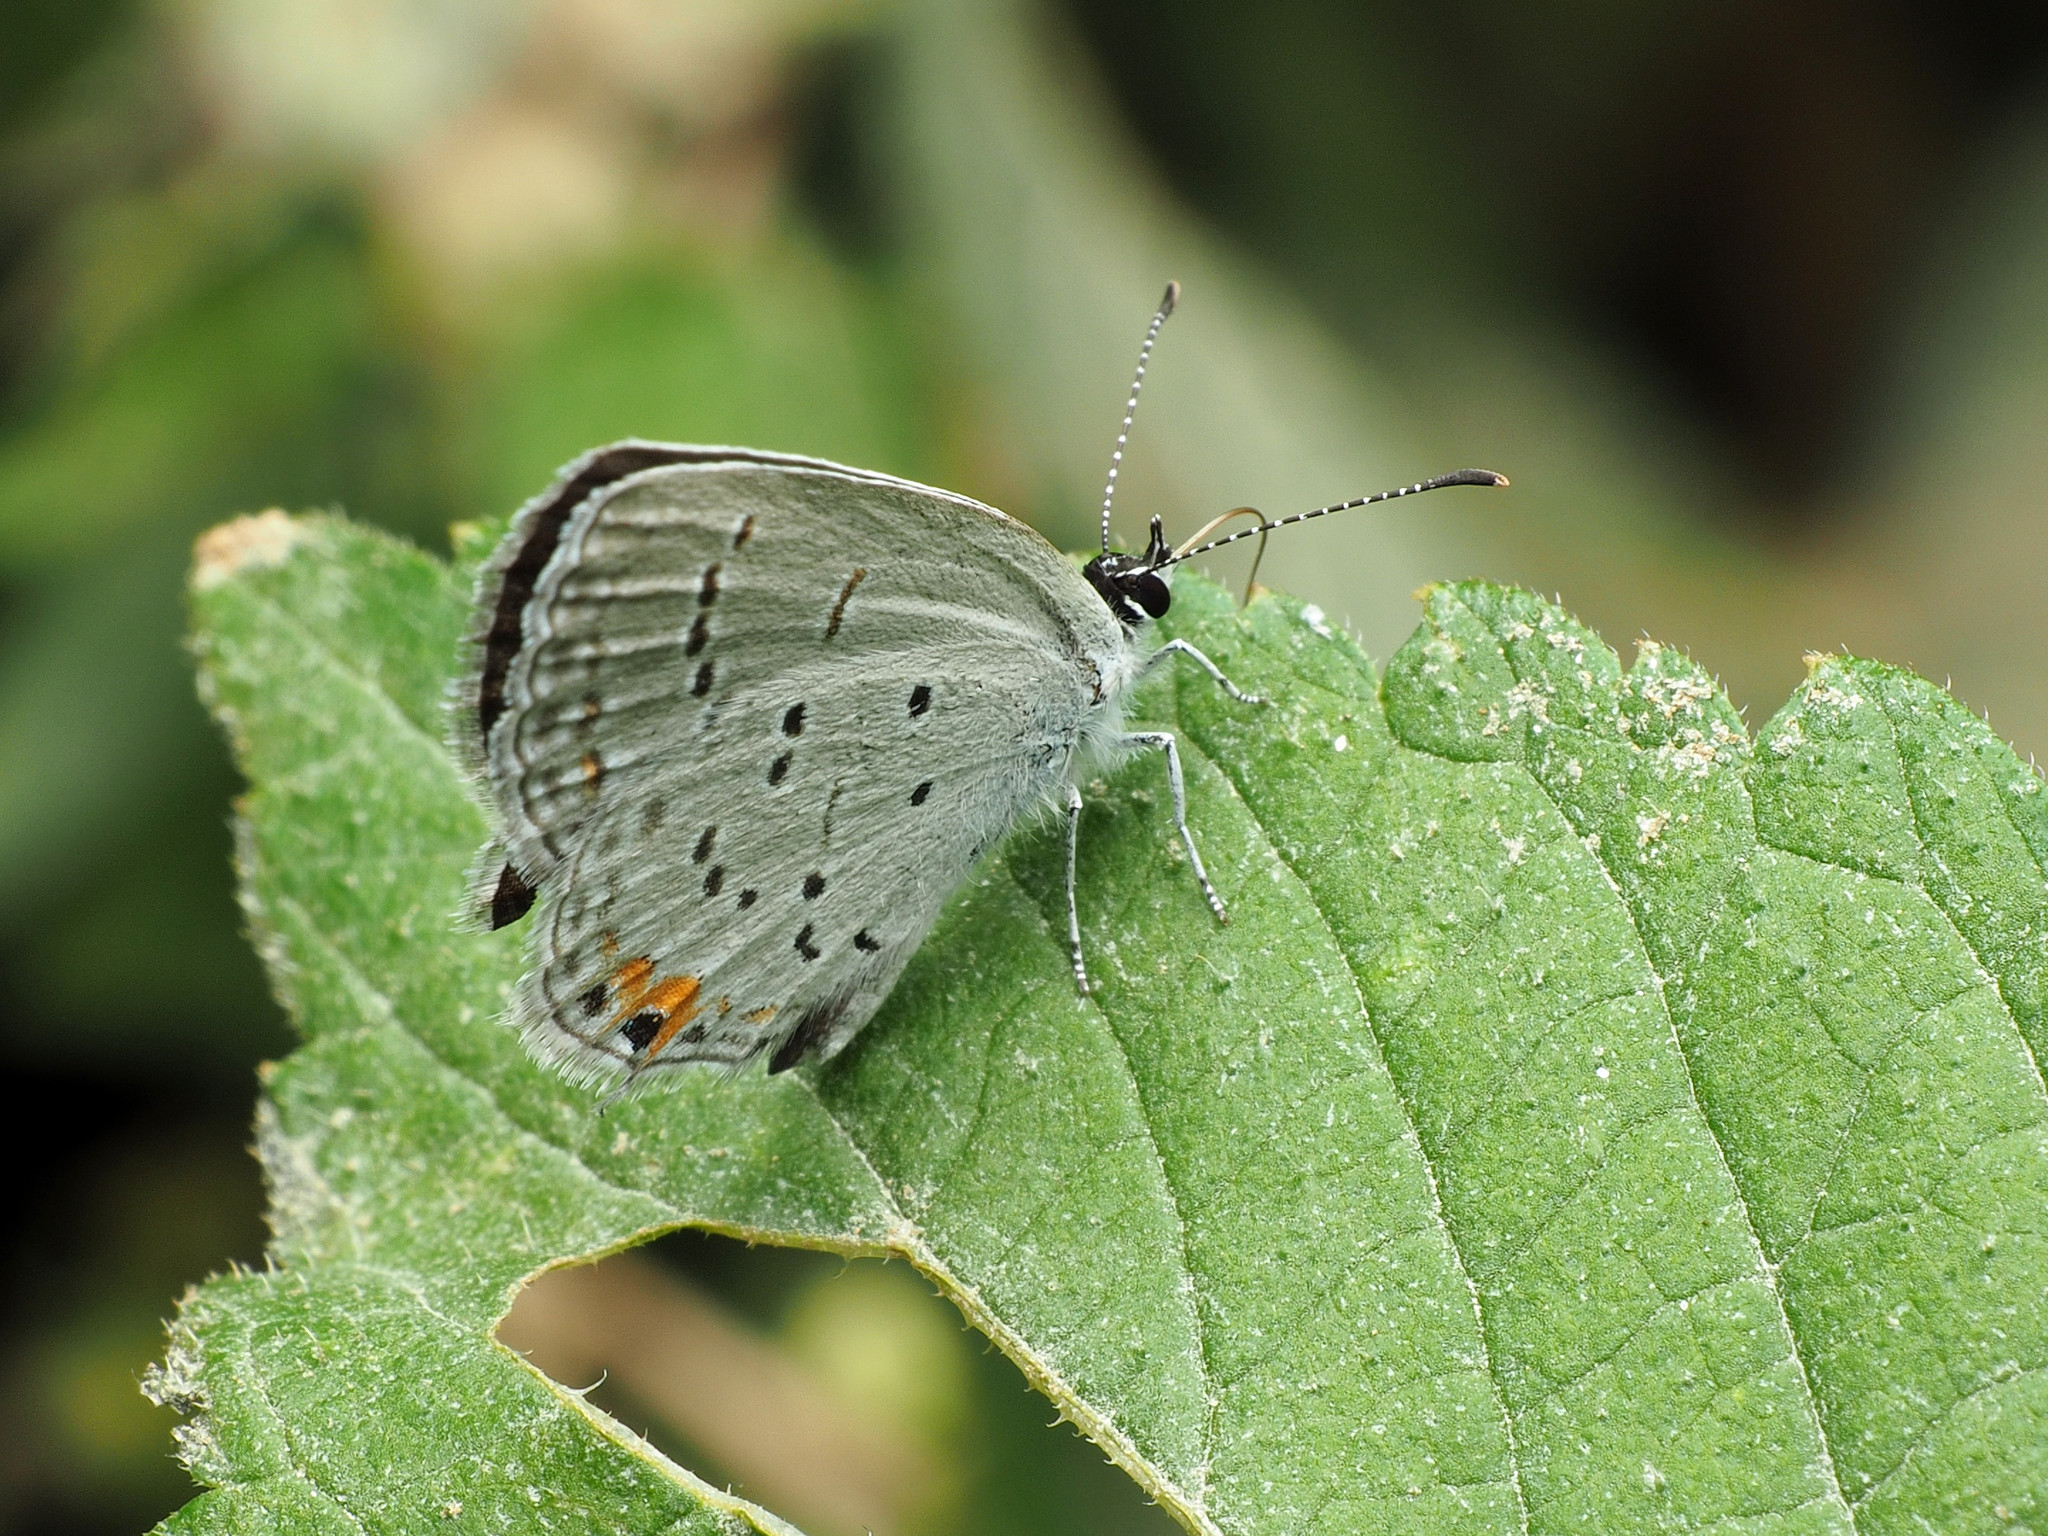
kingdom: Animalia
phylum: Arthropoda
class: Insecta
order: Lepidoptera
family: Lycaenidae
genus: Elkalyce
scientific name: Elkalyce comyntas
